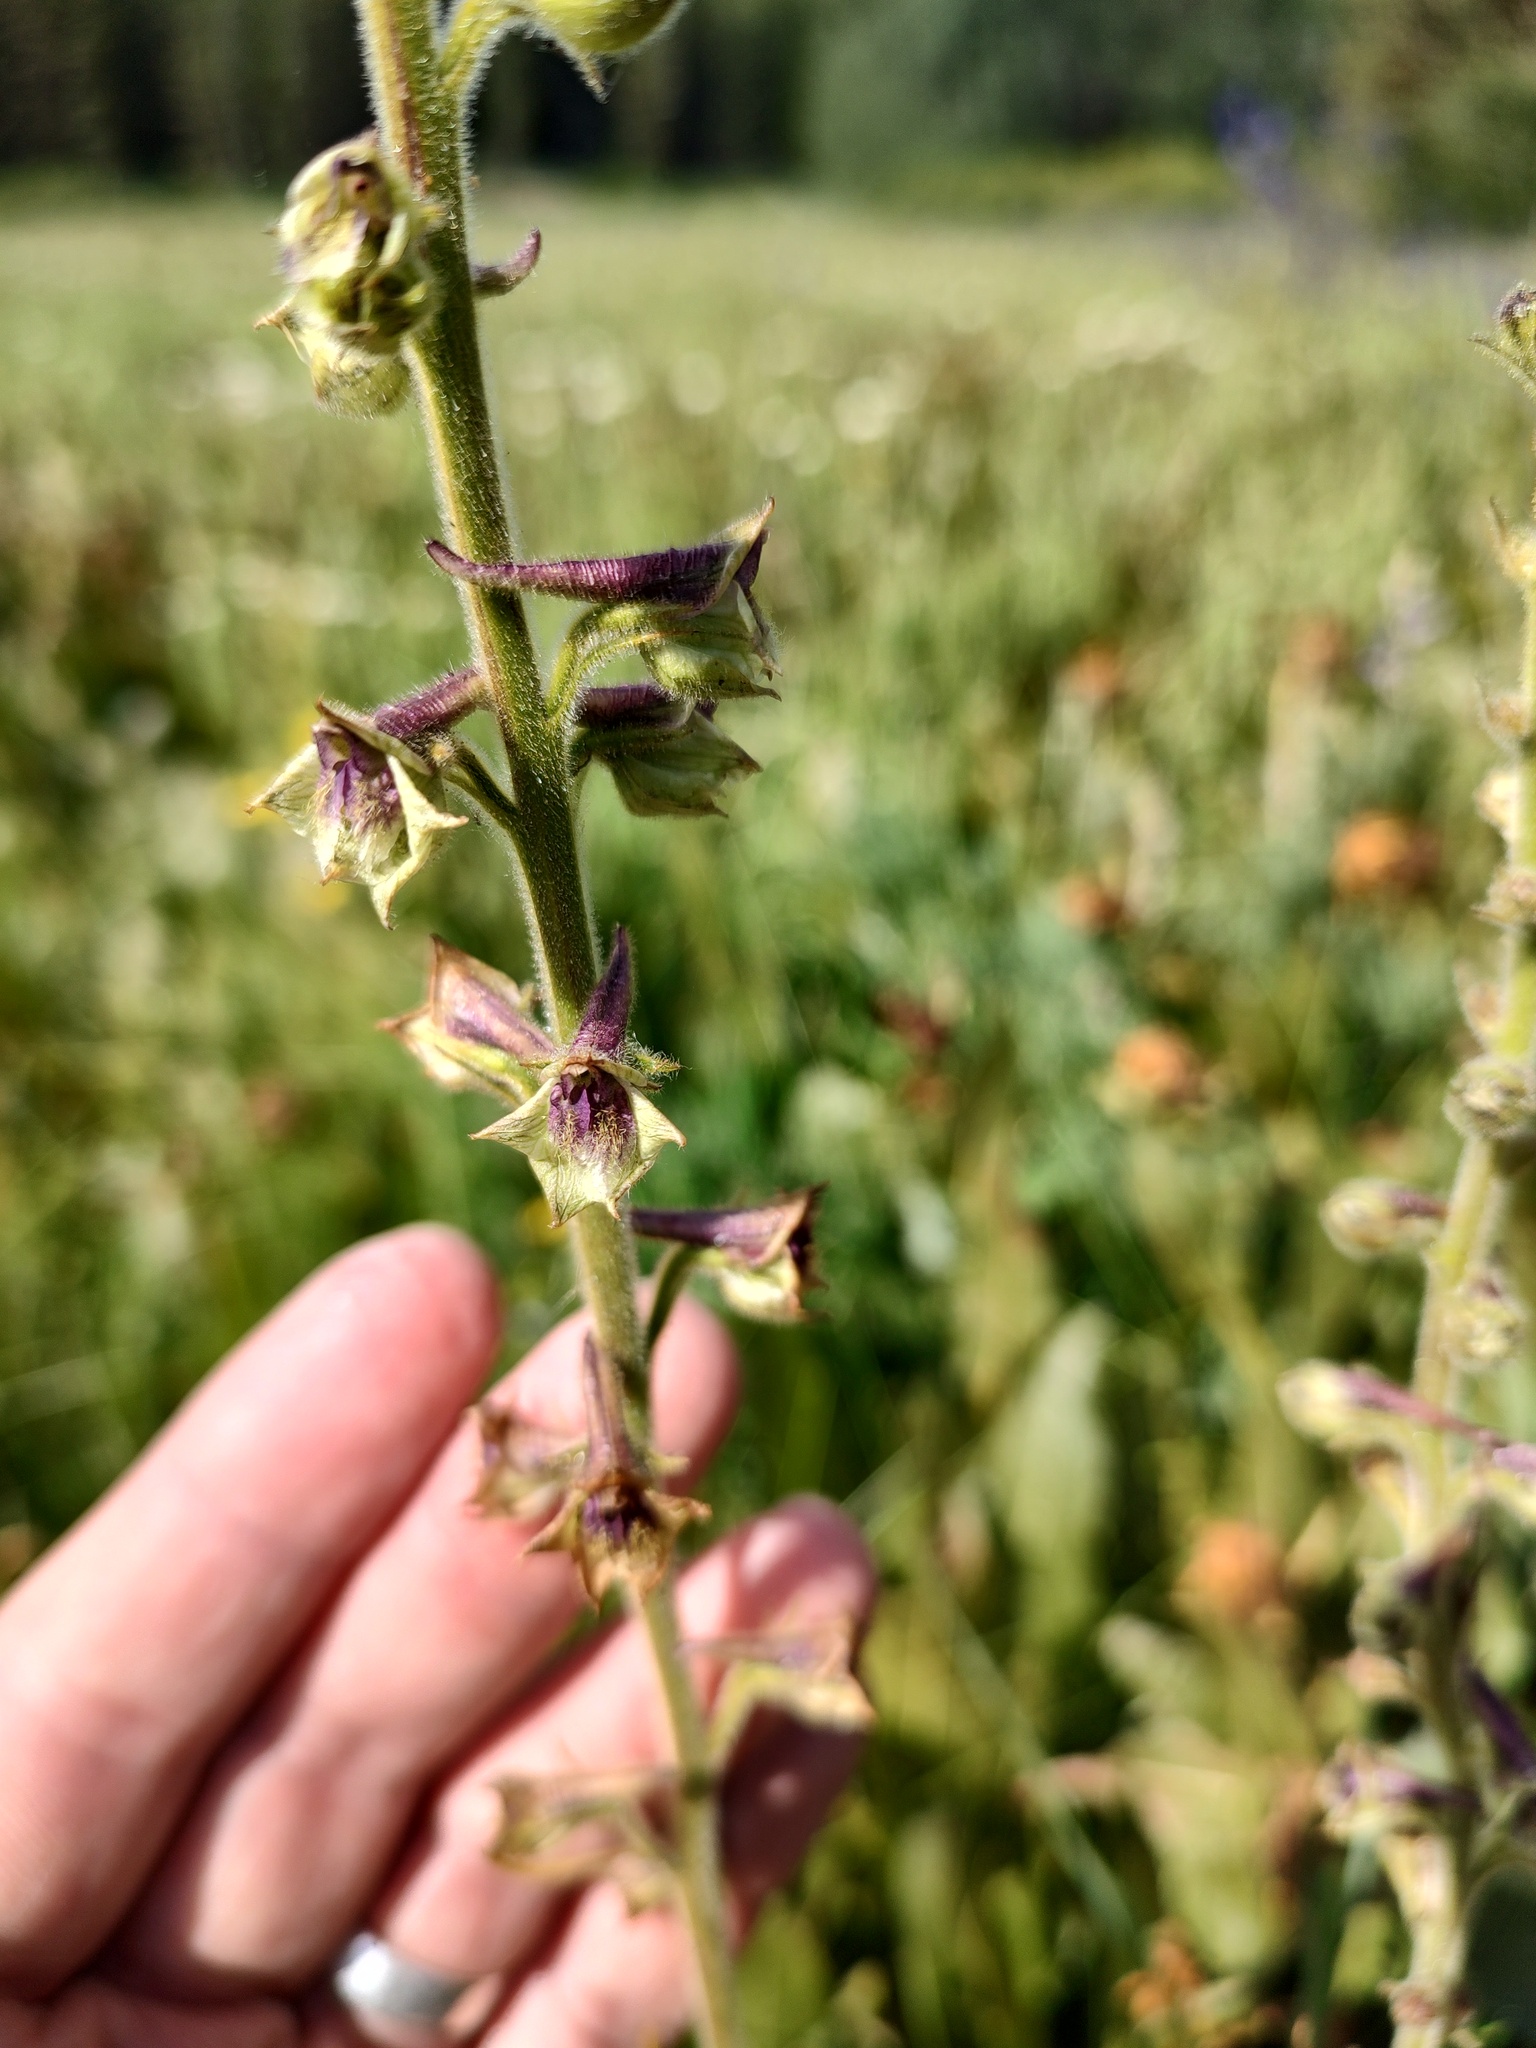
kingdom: Plantae
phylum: Tracheophyta
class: Magnoliopsida
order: Ranunculales
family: Ranunculaceae
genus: Delphinium
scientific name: Delphinium viridescens
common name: Wenatchee larkspur
